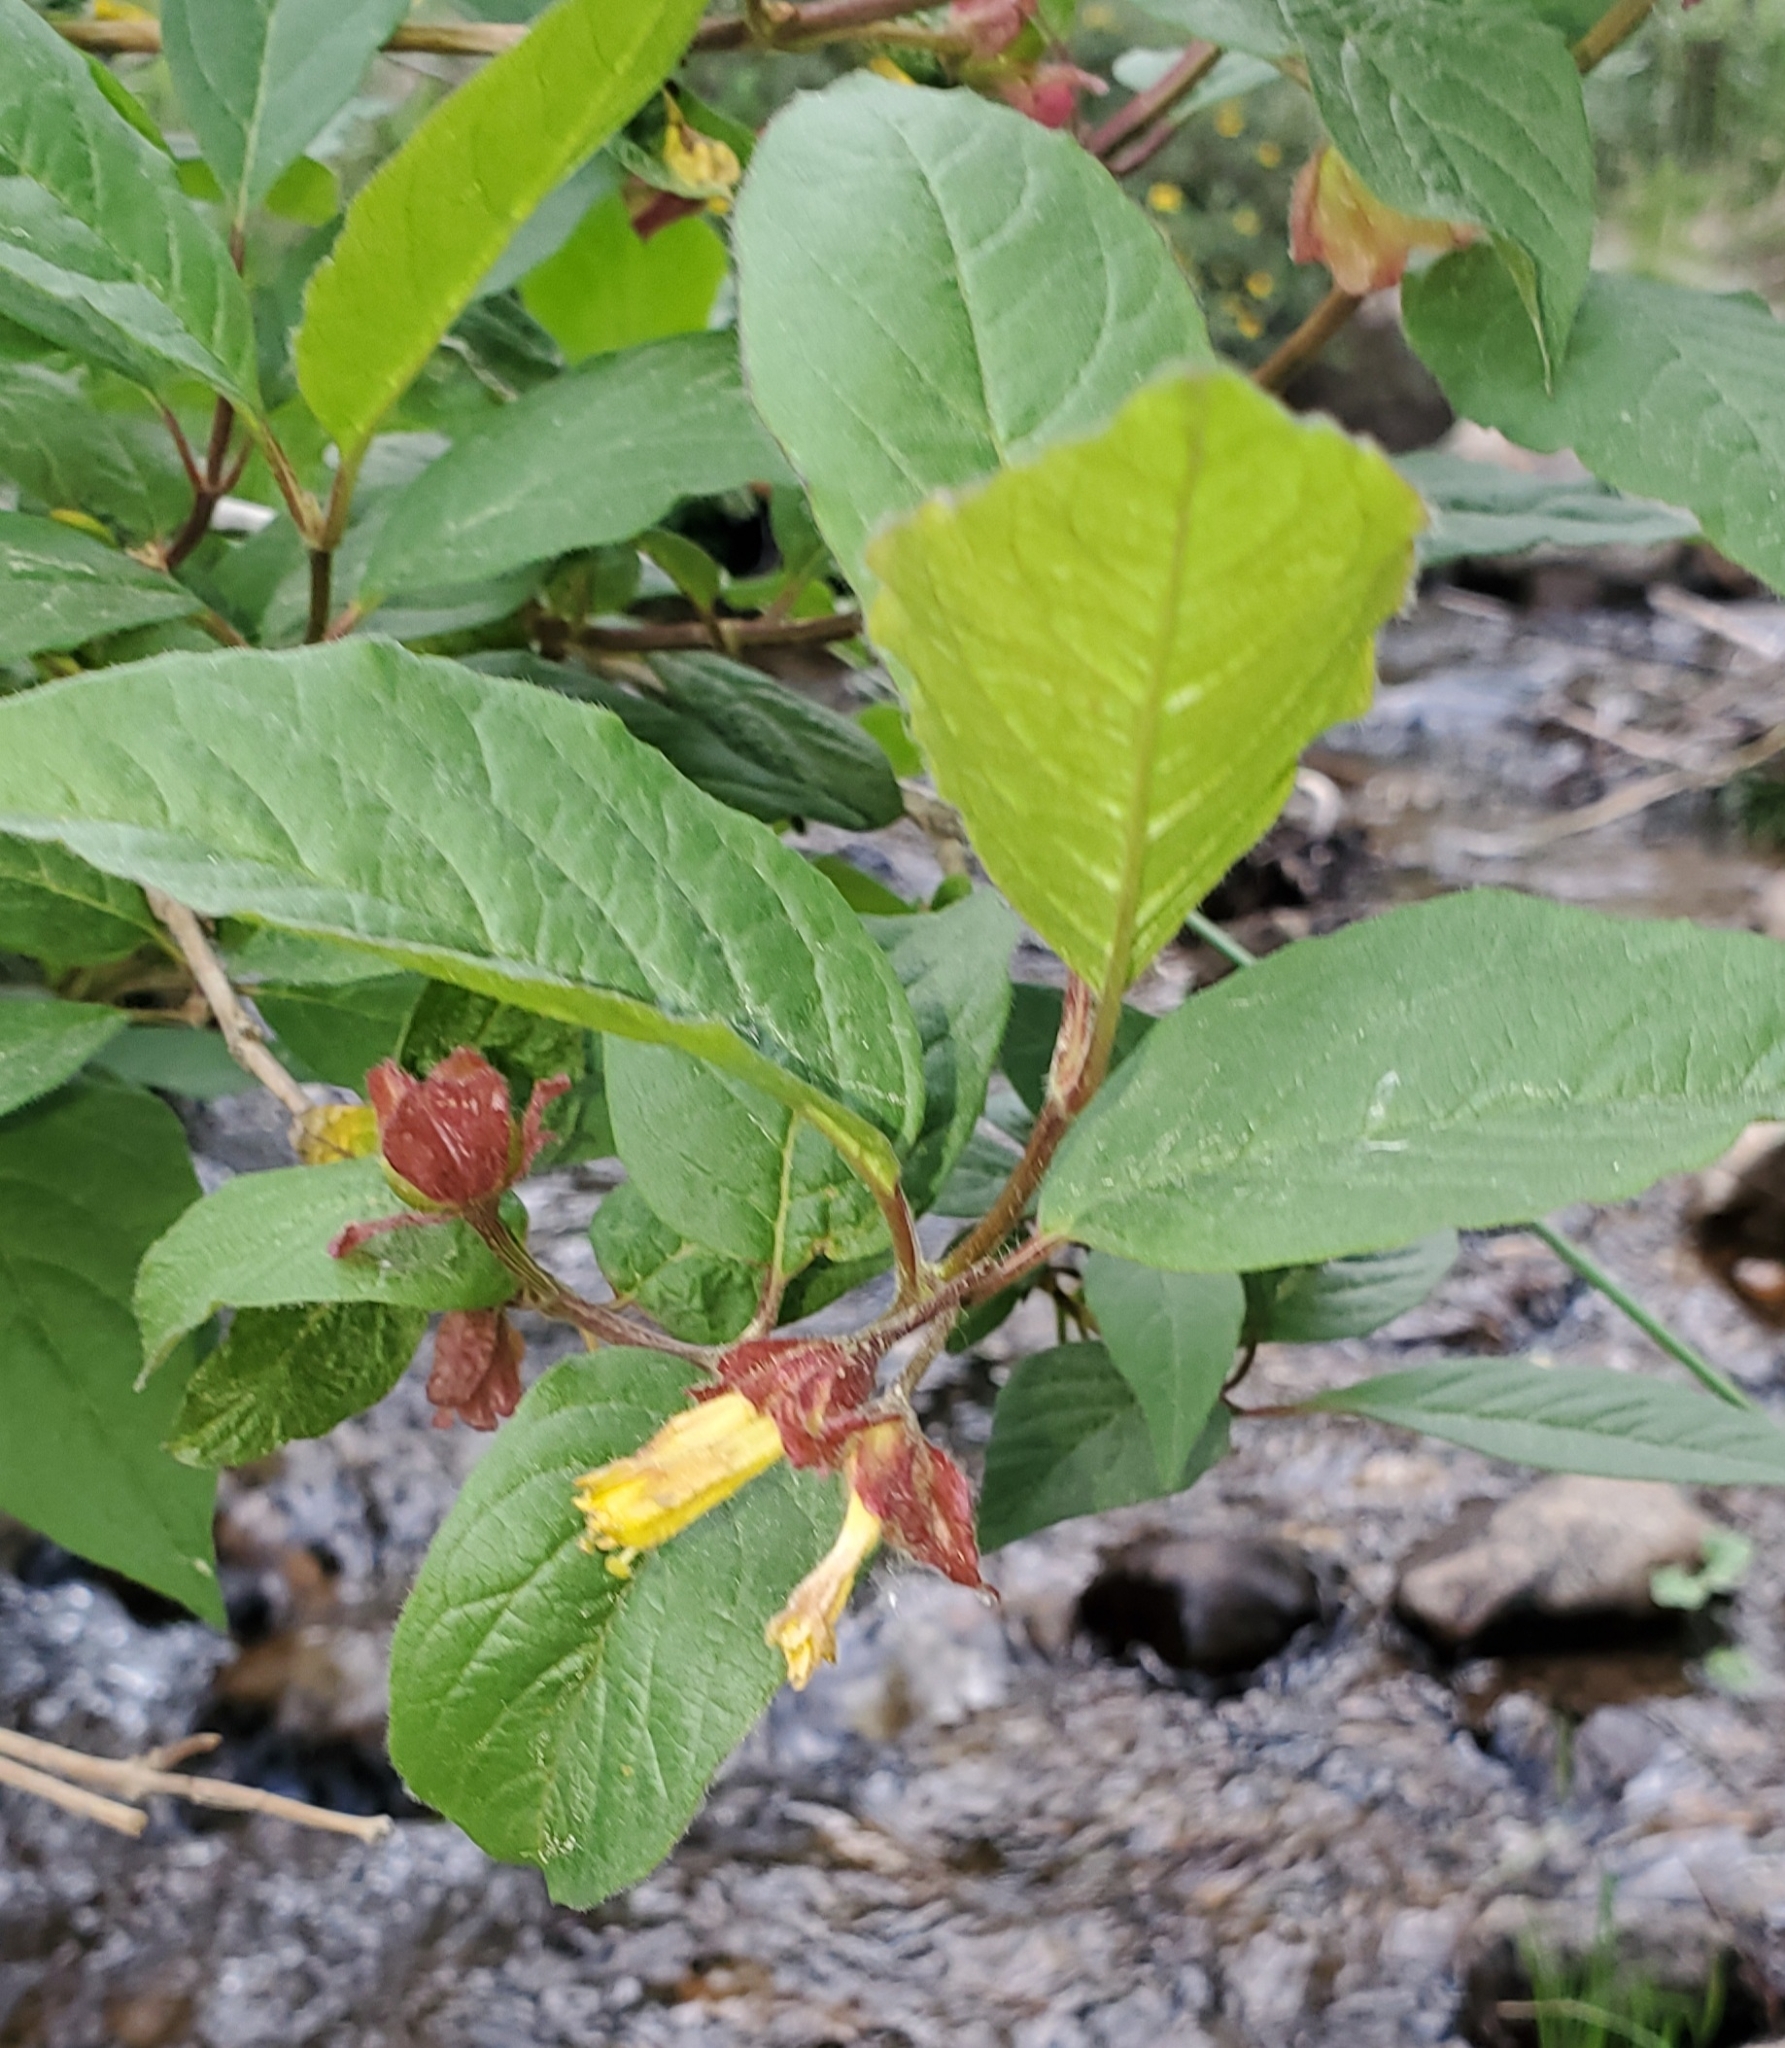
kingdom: Plantae
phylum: Tracheophyta
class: Magnoliopsida
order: Dipsacales
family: Caprifoliaceae
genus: Lonicera
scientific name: Lonicera involucrata
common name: Californian honeysuckle
